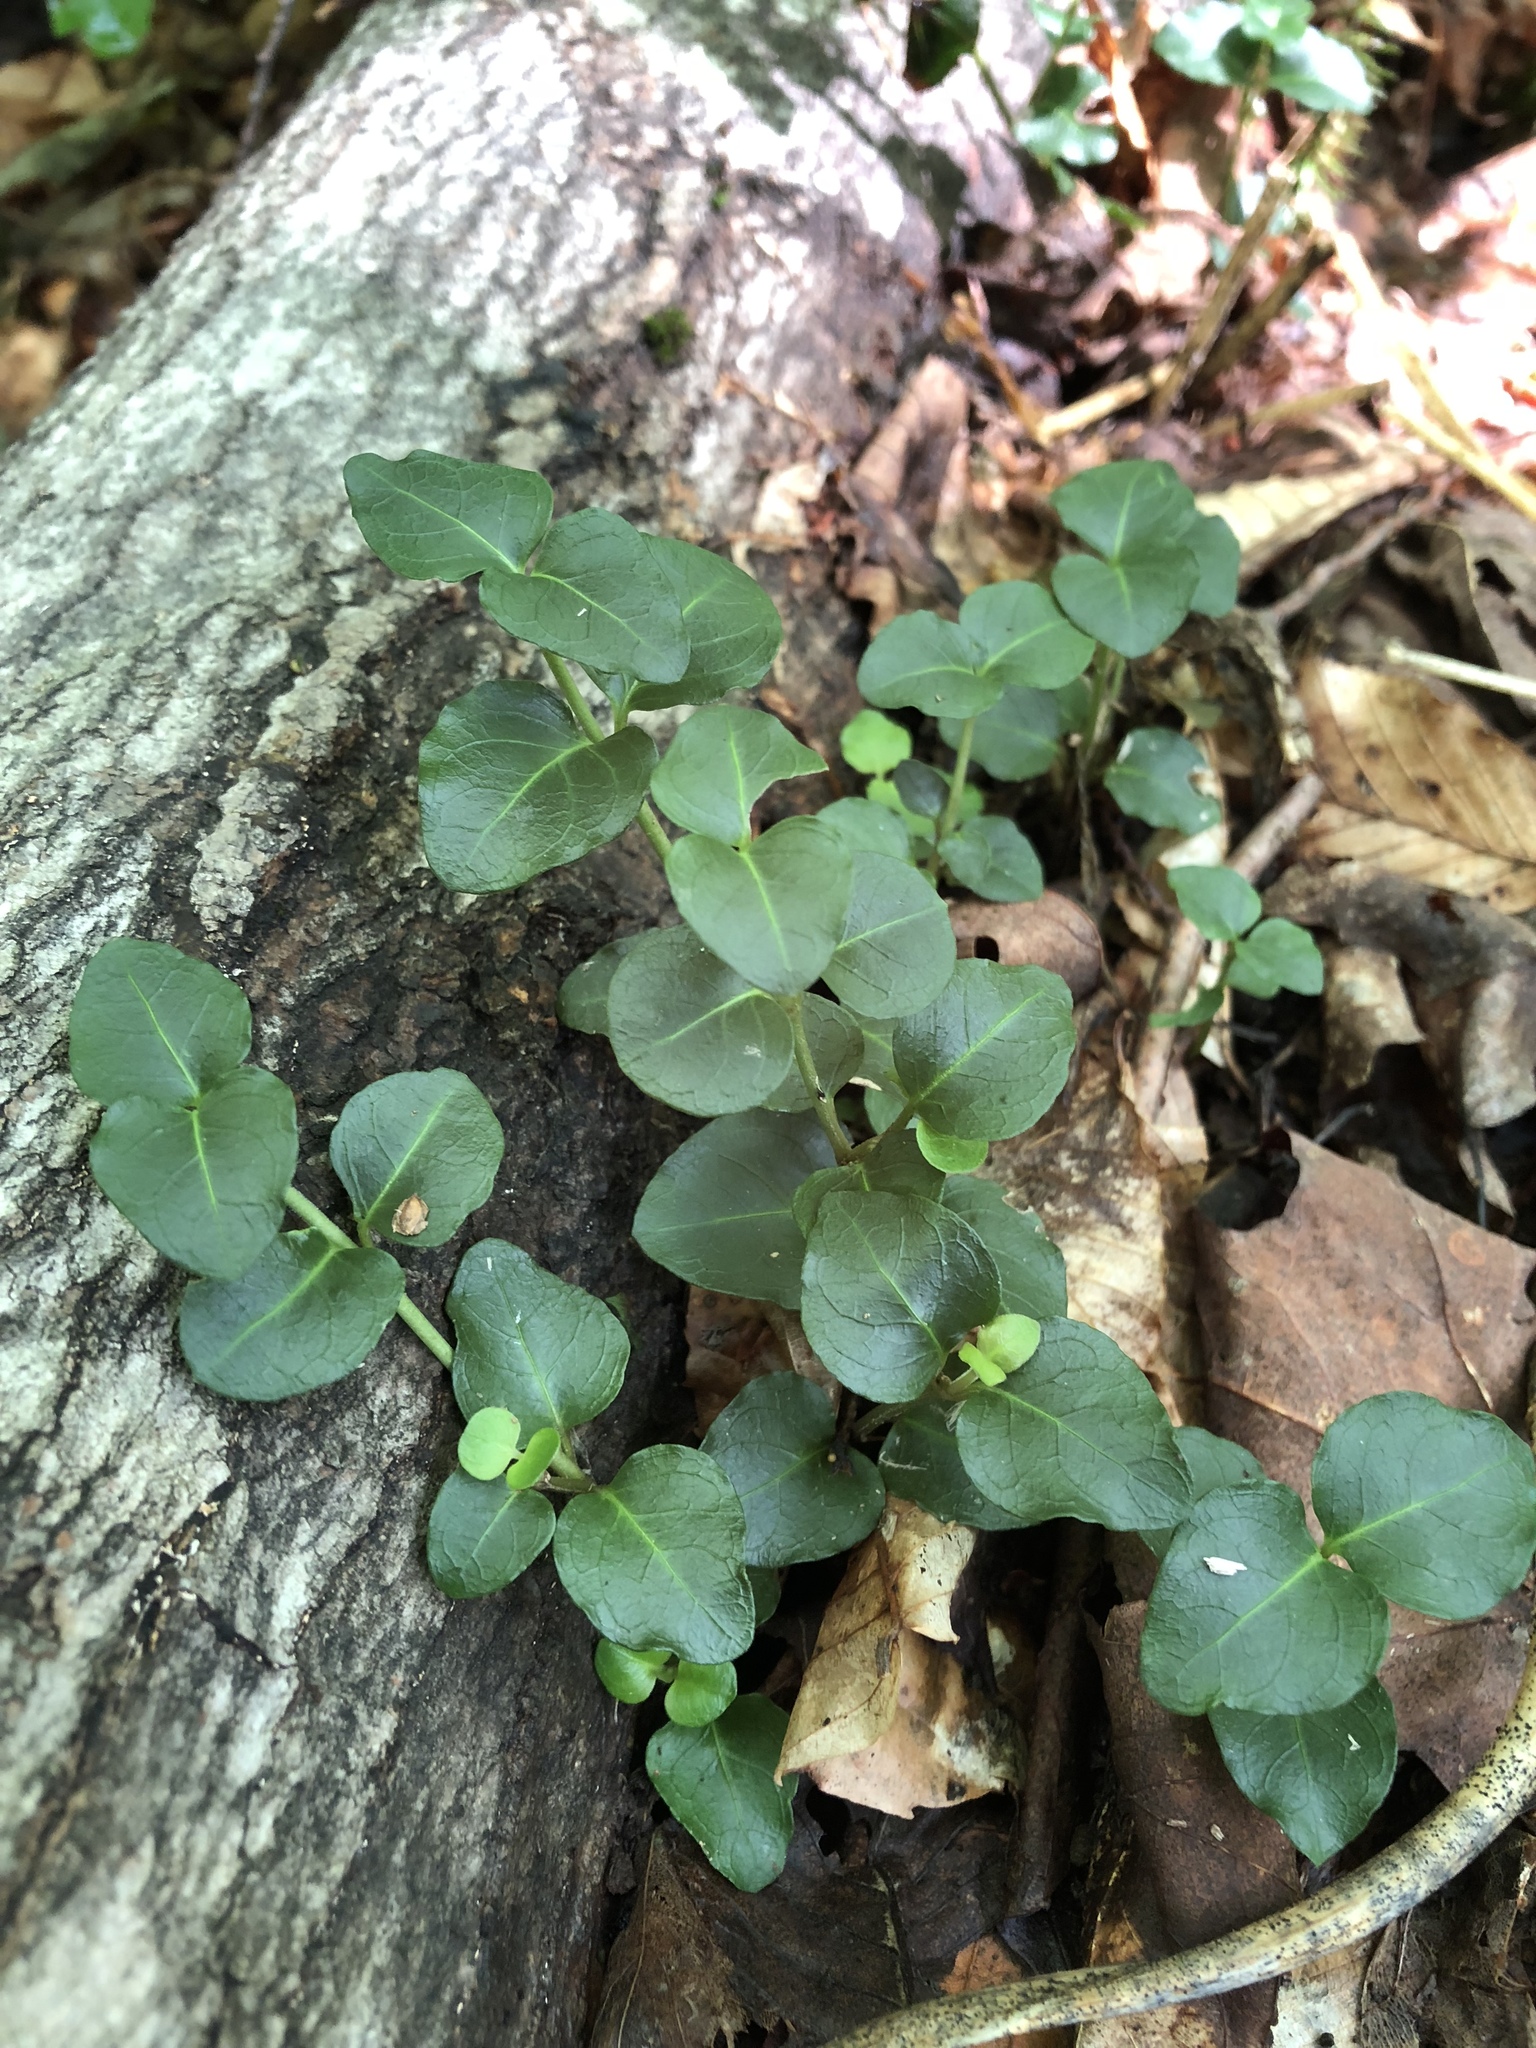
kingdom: Plantae
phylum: Tracheophyta
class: Magnoliopsida
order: Gentianales
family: Rubiaceae
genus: Mitchella
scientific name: Mitchella repens
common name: Partridge-berry
